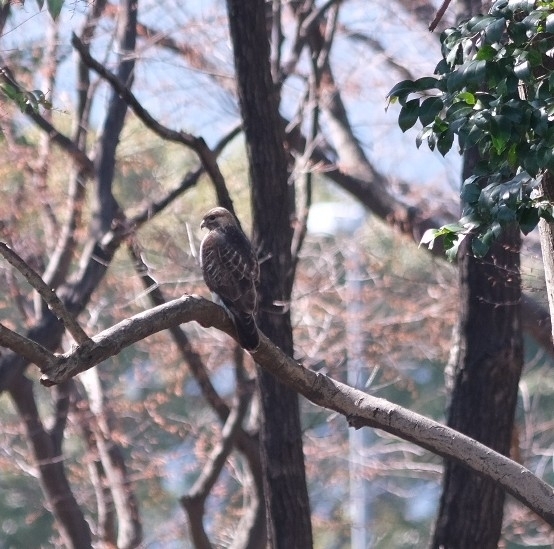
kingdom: Animalia
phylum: Chordata
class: Aves
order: Accipitriformes
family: Accipitridae
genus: Buteo
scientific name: Buteo japonicus
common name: Eastern buzzard
